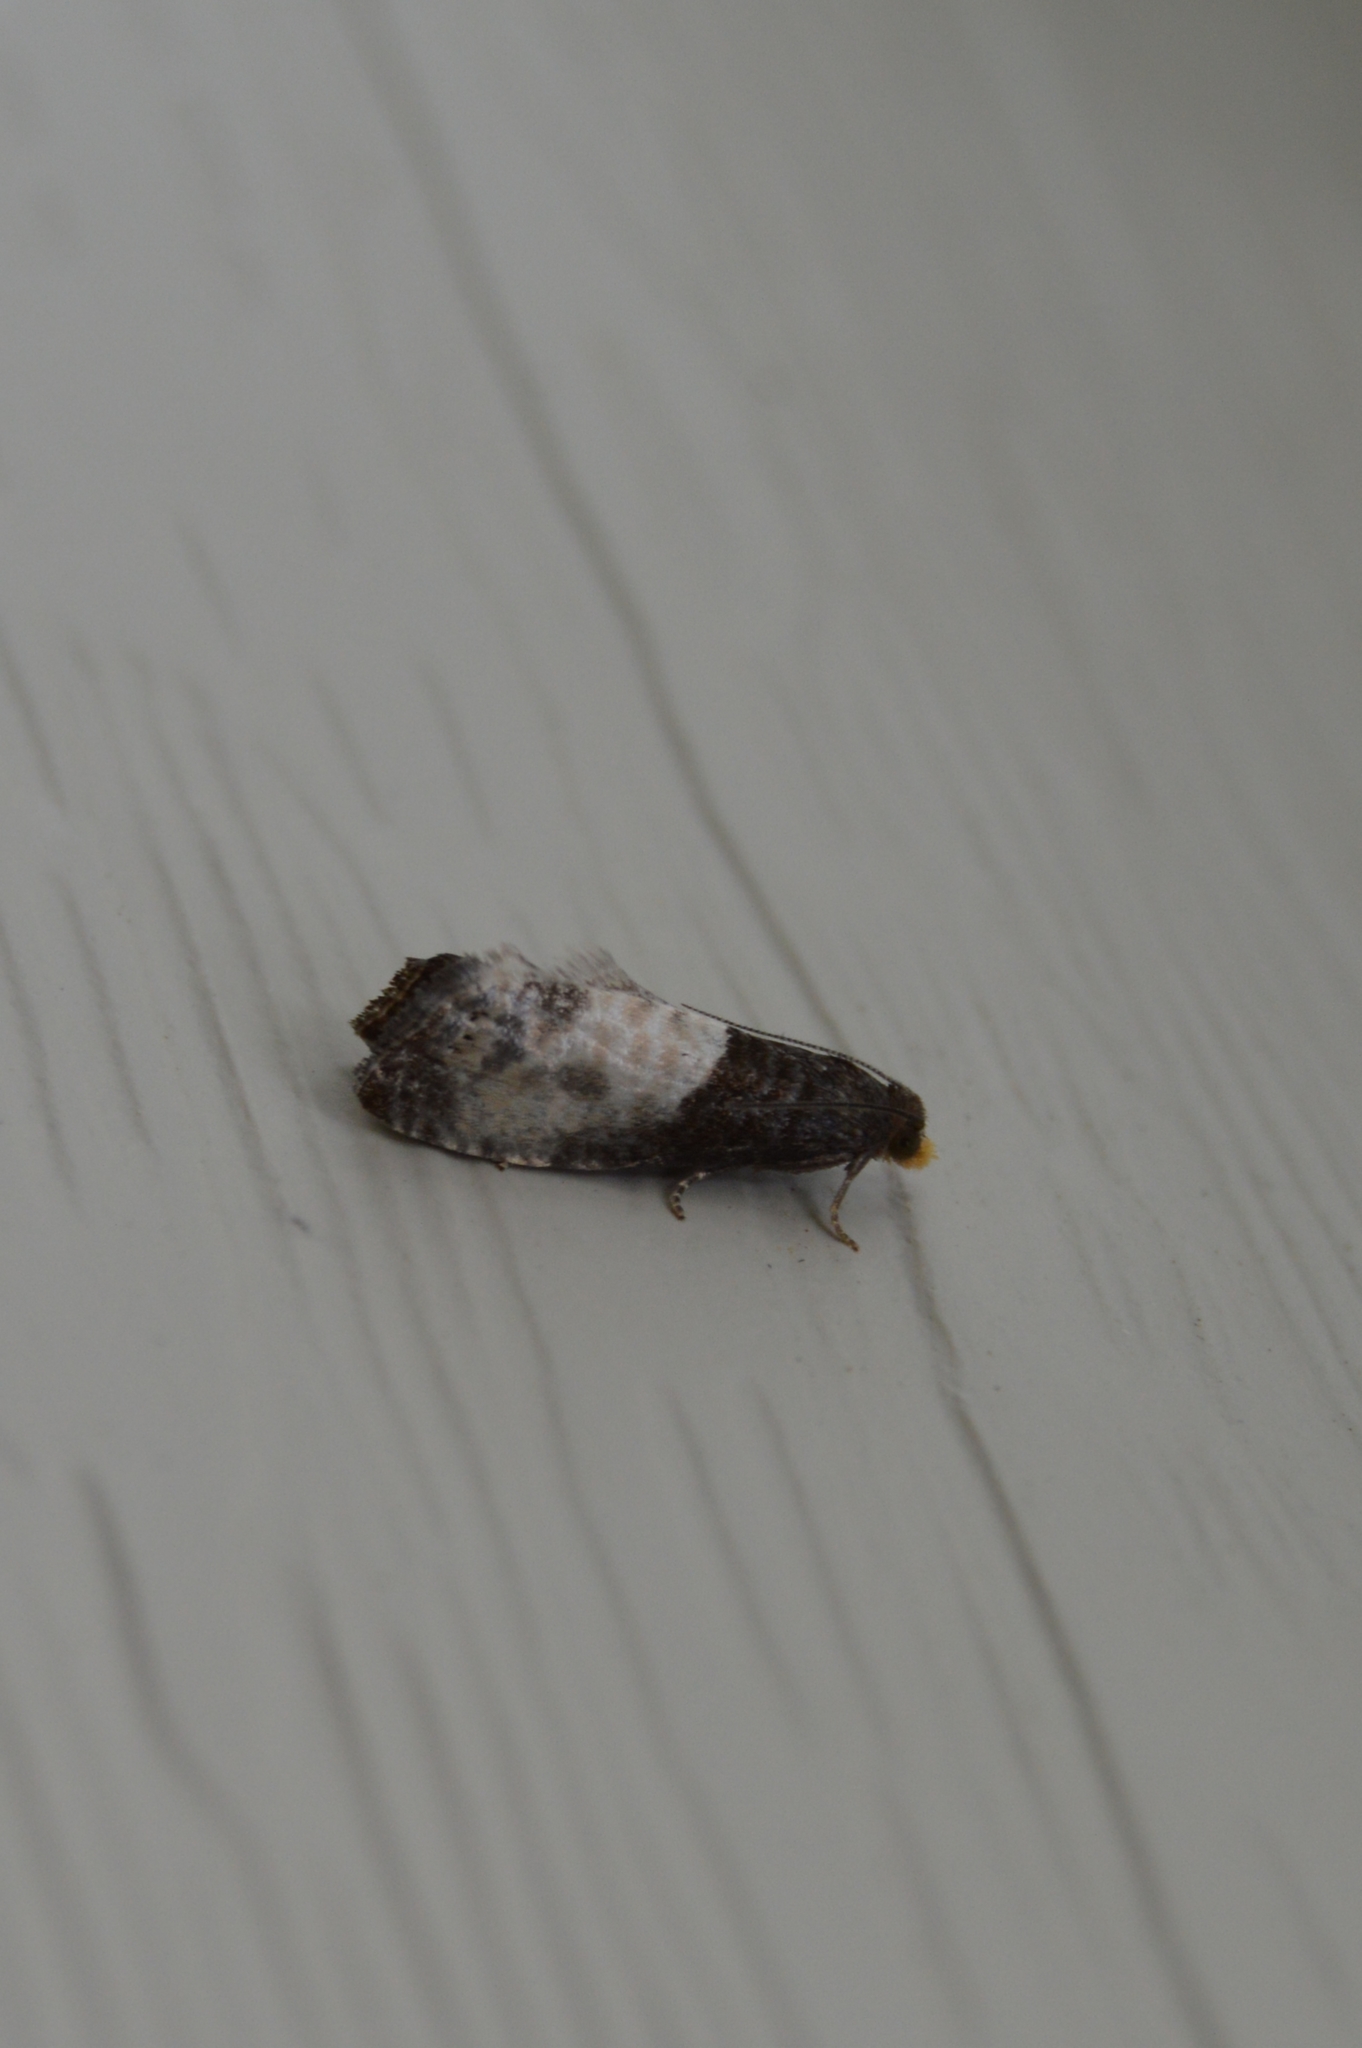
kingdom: Animalia
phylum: Arthropoda
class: Insecta
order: Lepidoptera
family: Tortricidae
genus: Notocelia
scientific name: Notocelia cynosbatella
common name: Yellow-faced bell moth
